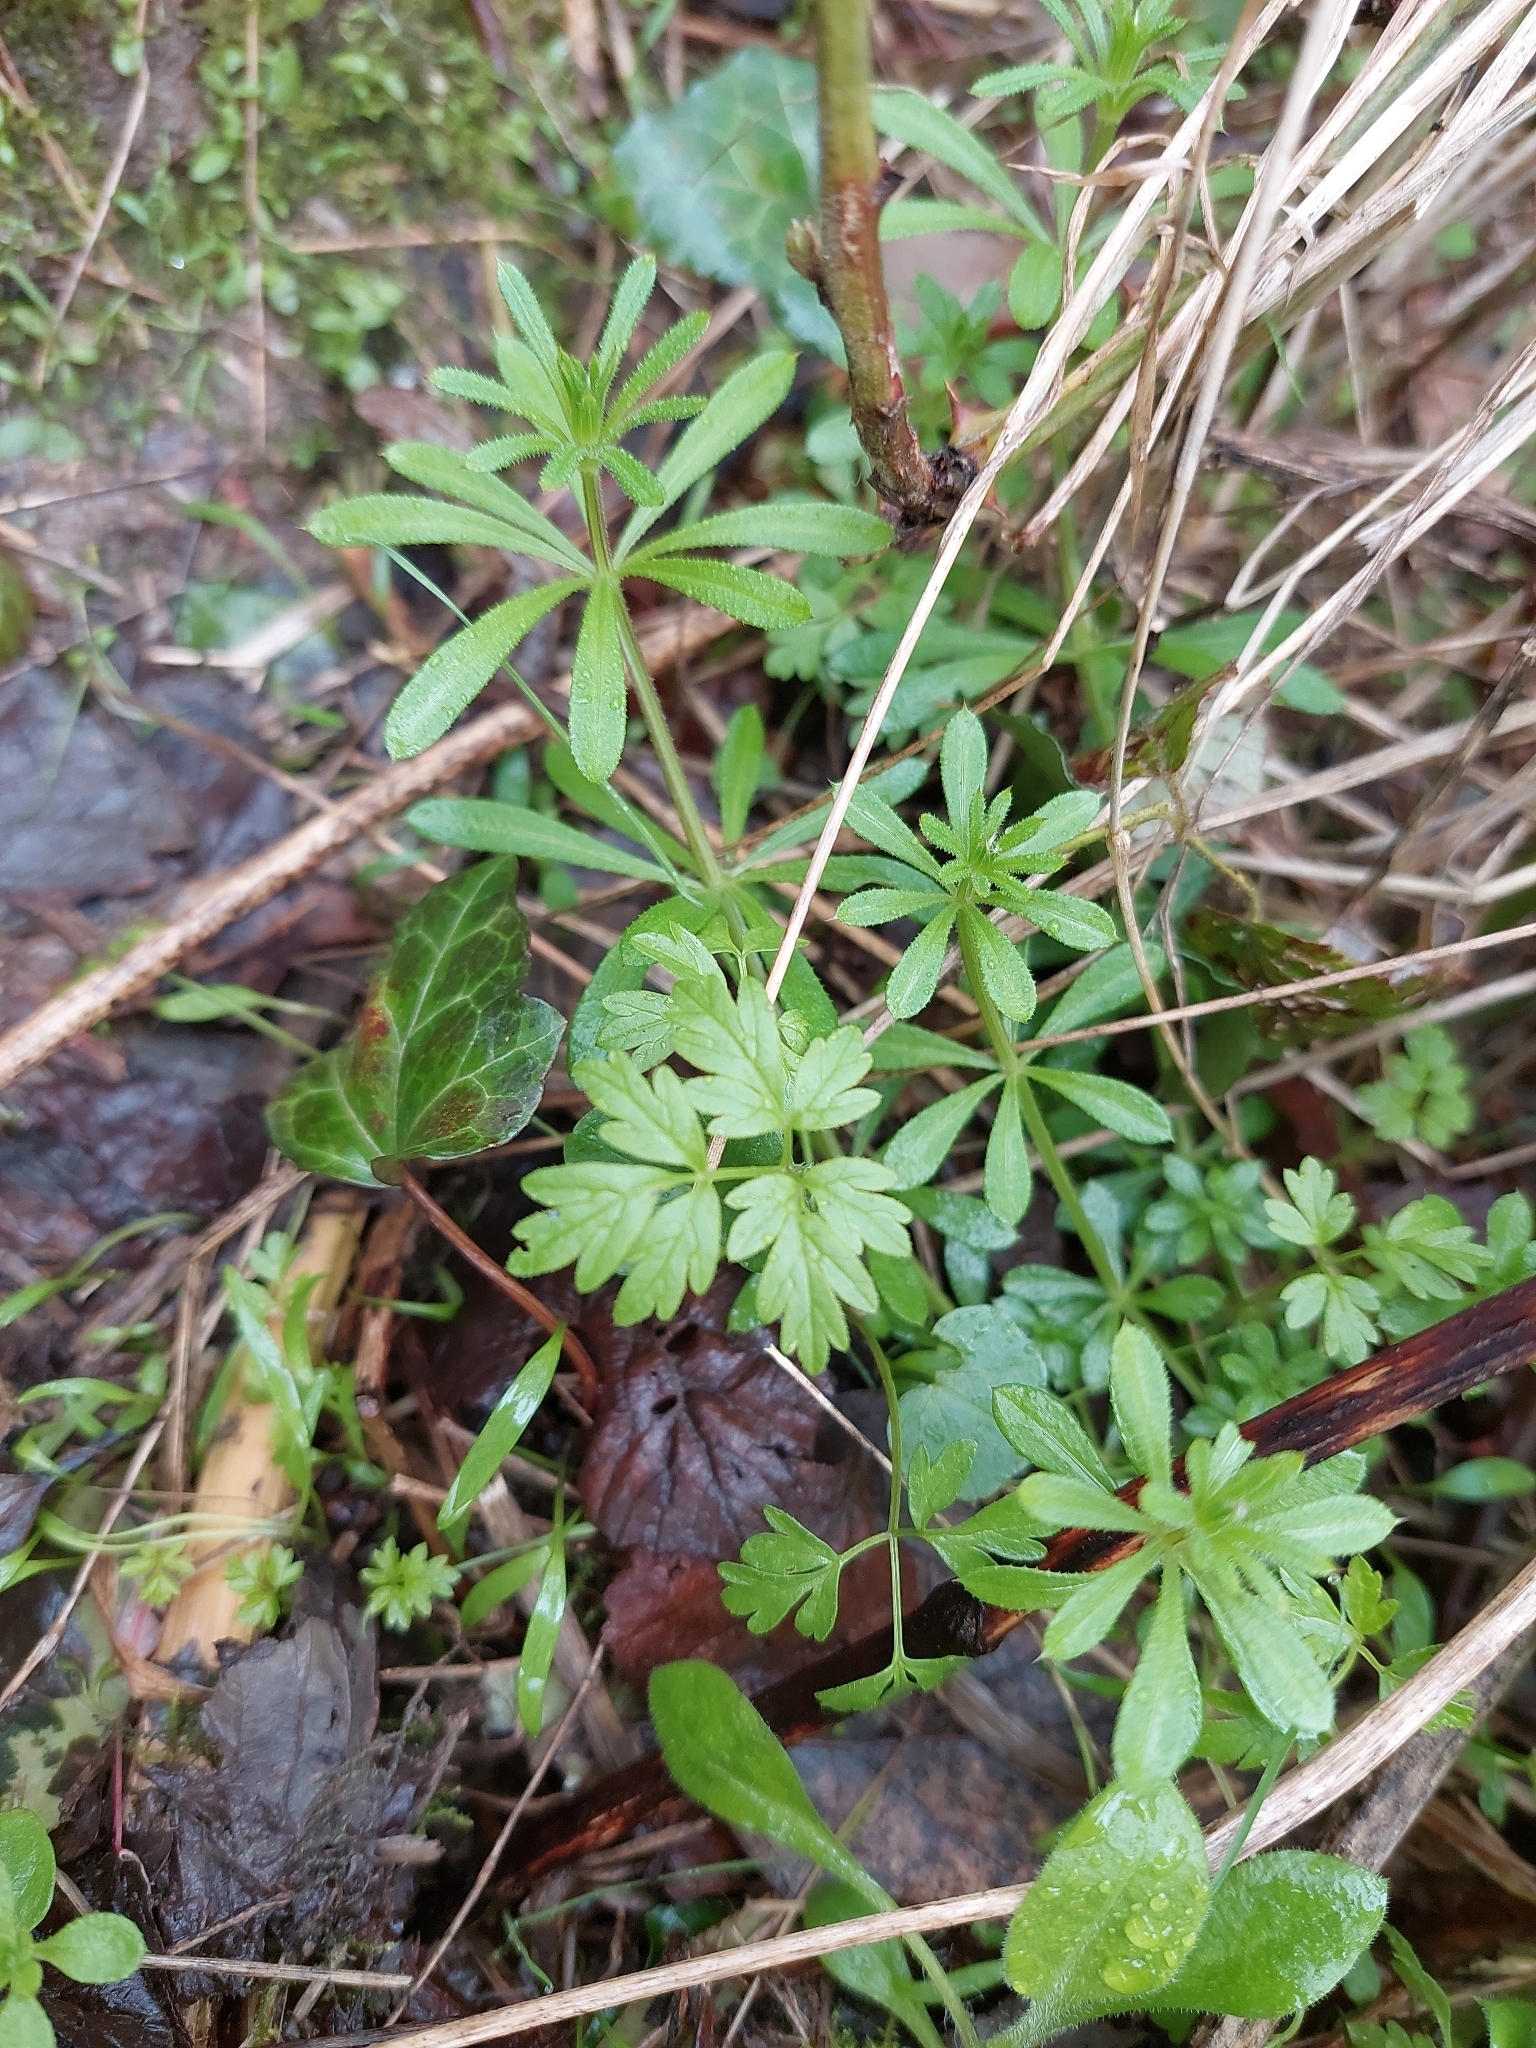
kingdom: Plantae
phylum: Tracheophyta
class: Magnoliopsida
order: Gentianales
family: Rubiaceae
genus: Galium
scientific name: Galium aparine
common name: Cleavers
